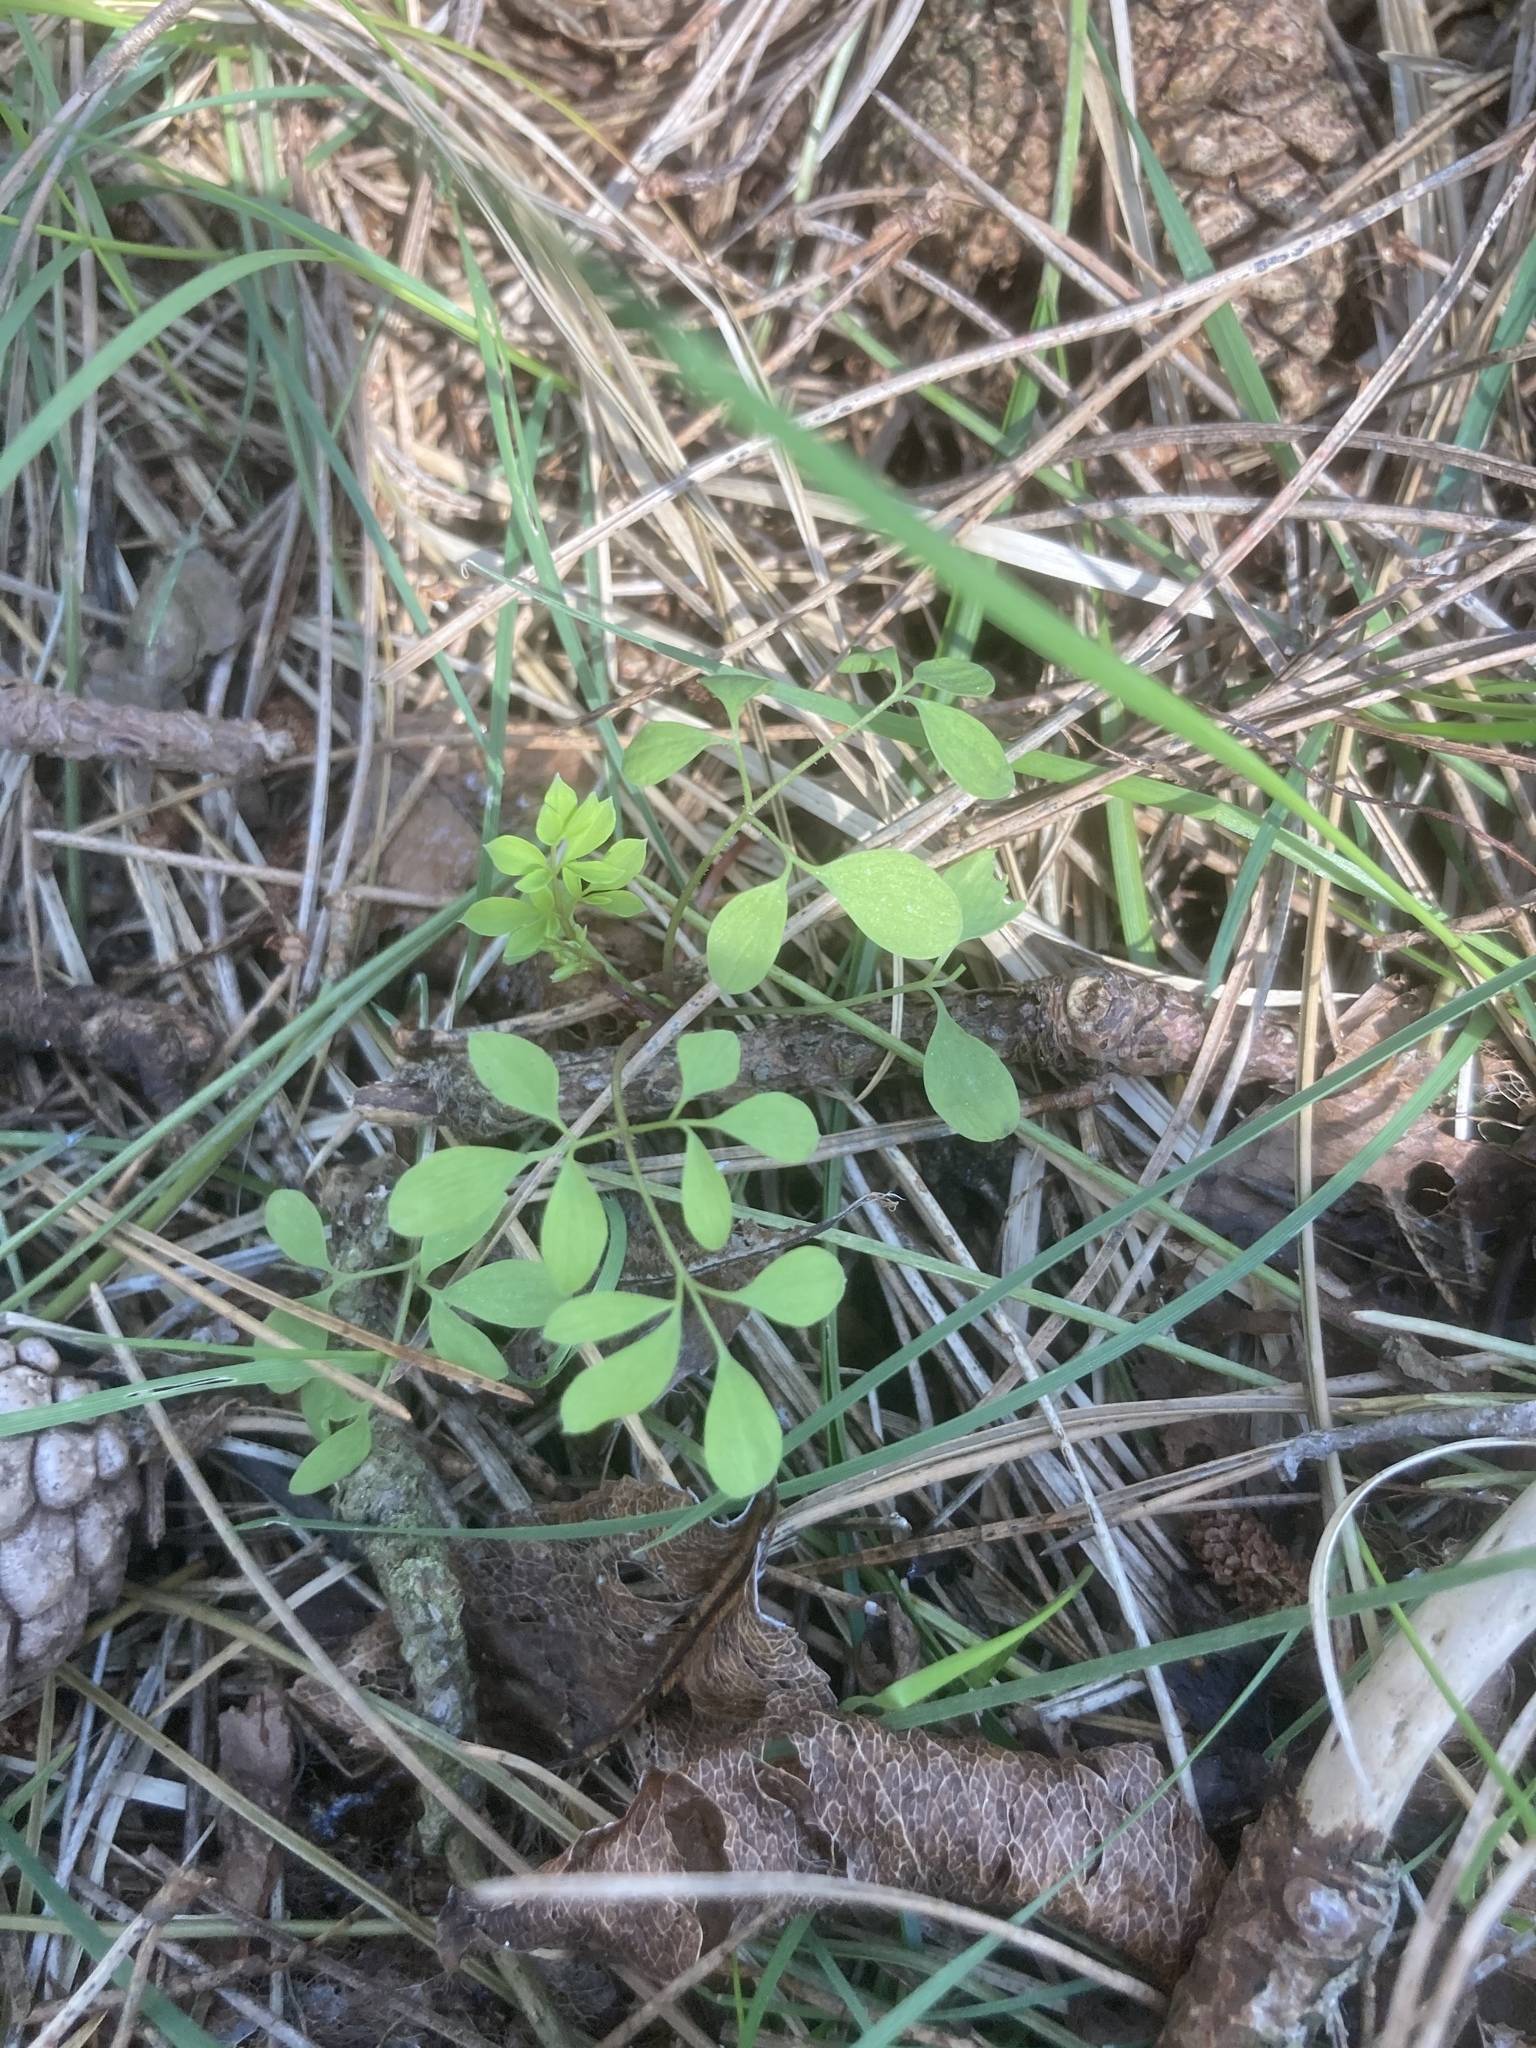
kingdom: Plantae
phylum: Tracheophyta
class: Magnoliopsida
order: Ranunculales
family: Papaveraceae
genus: Ceratocapnos
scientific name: Ceratocapnos claviculata
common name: Climbing corydalis
